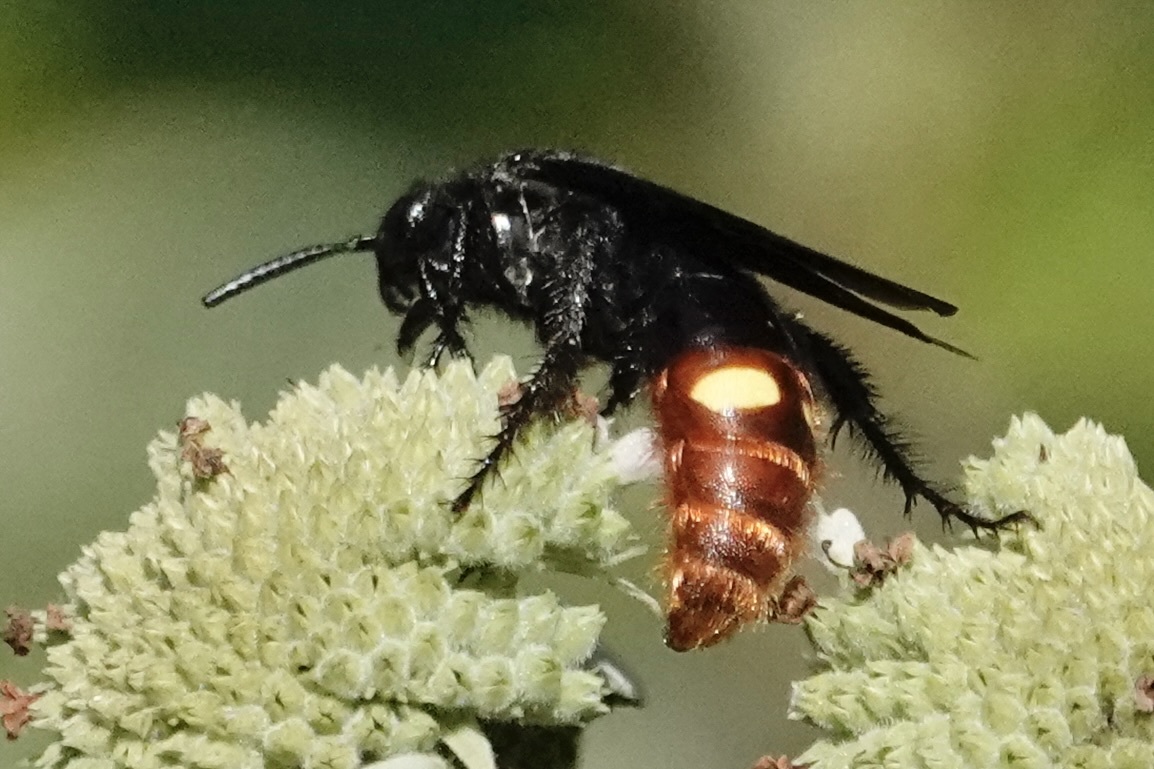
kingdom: Animalia
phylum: Arthropoda
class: Insecta
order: Hymenoptera
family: Scoliidae
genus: Scolia
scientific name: Scolia dubia
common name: Blue-winged scoliid wasp
